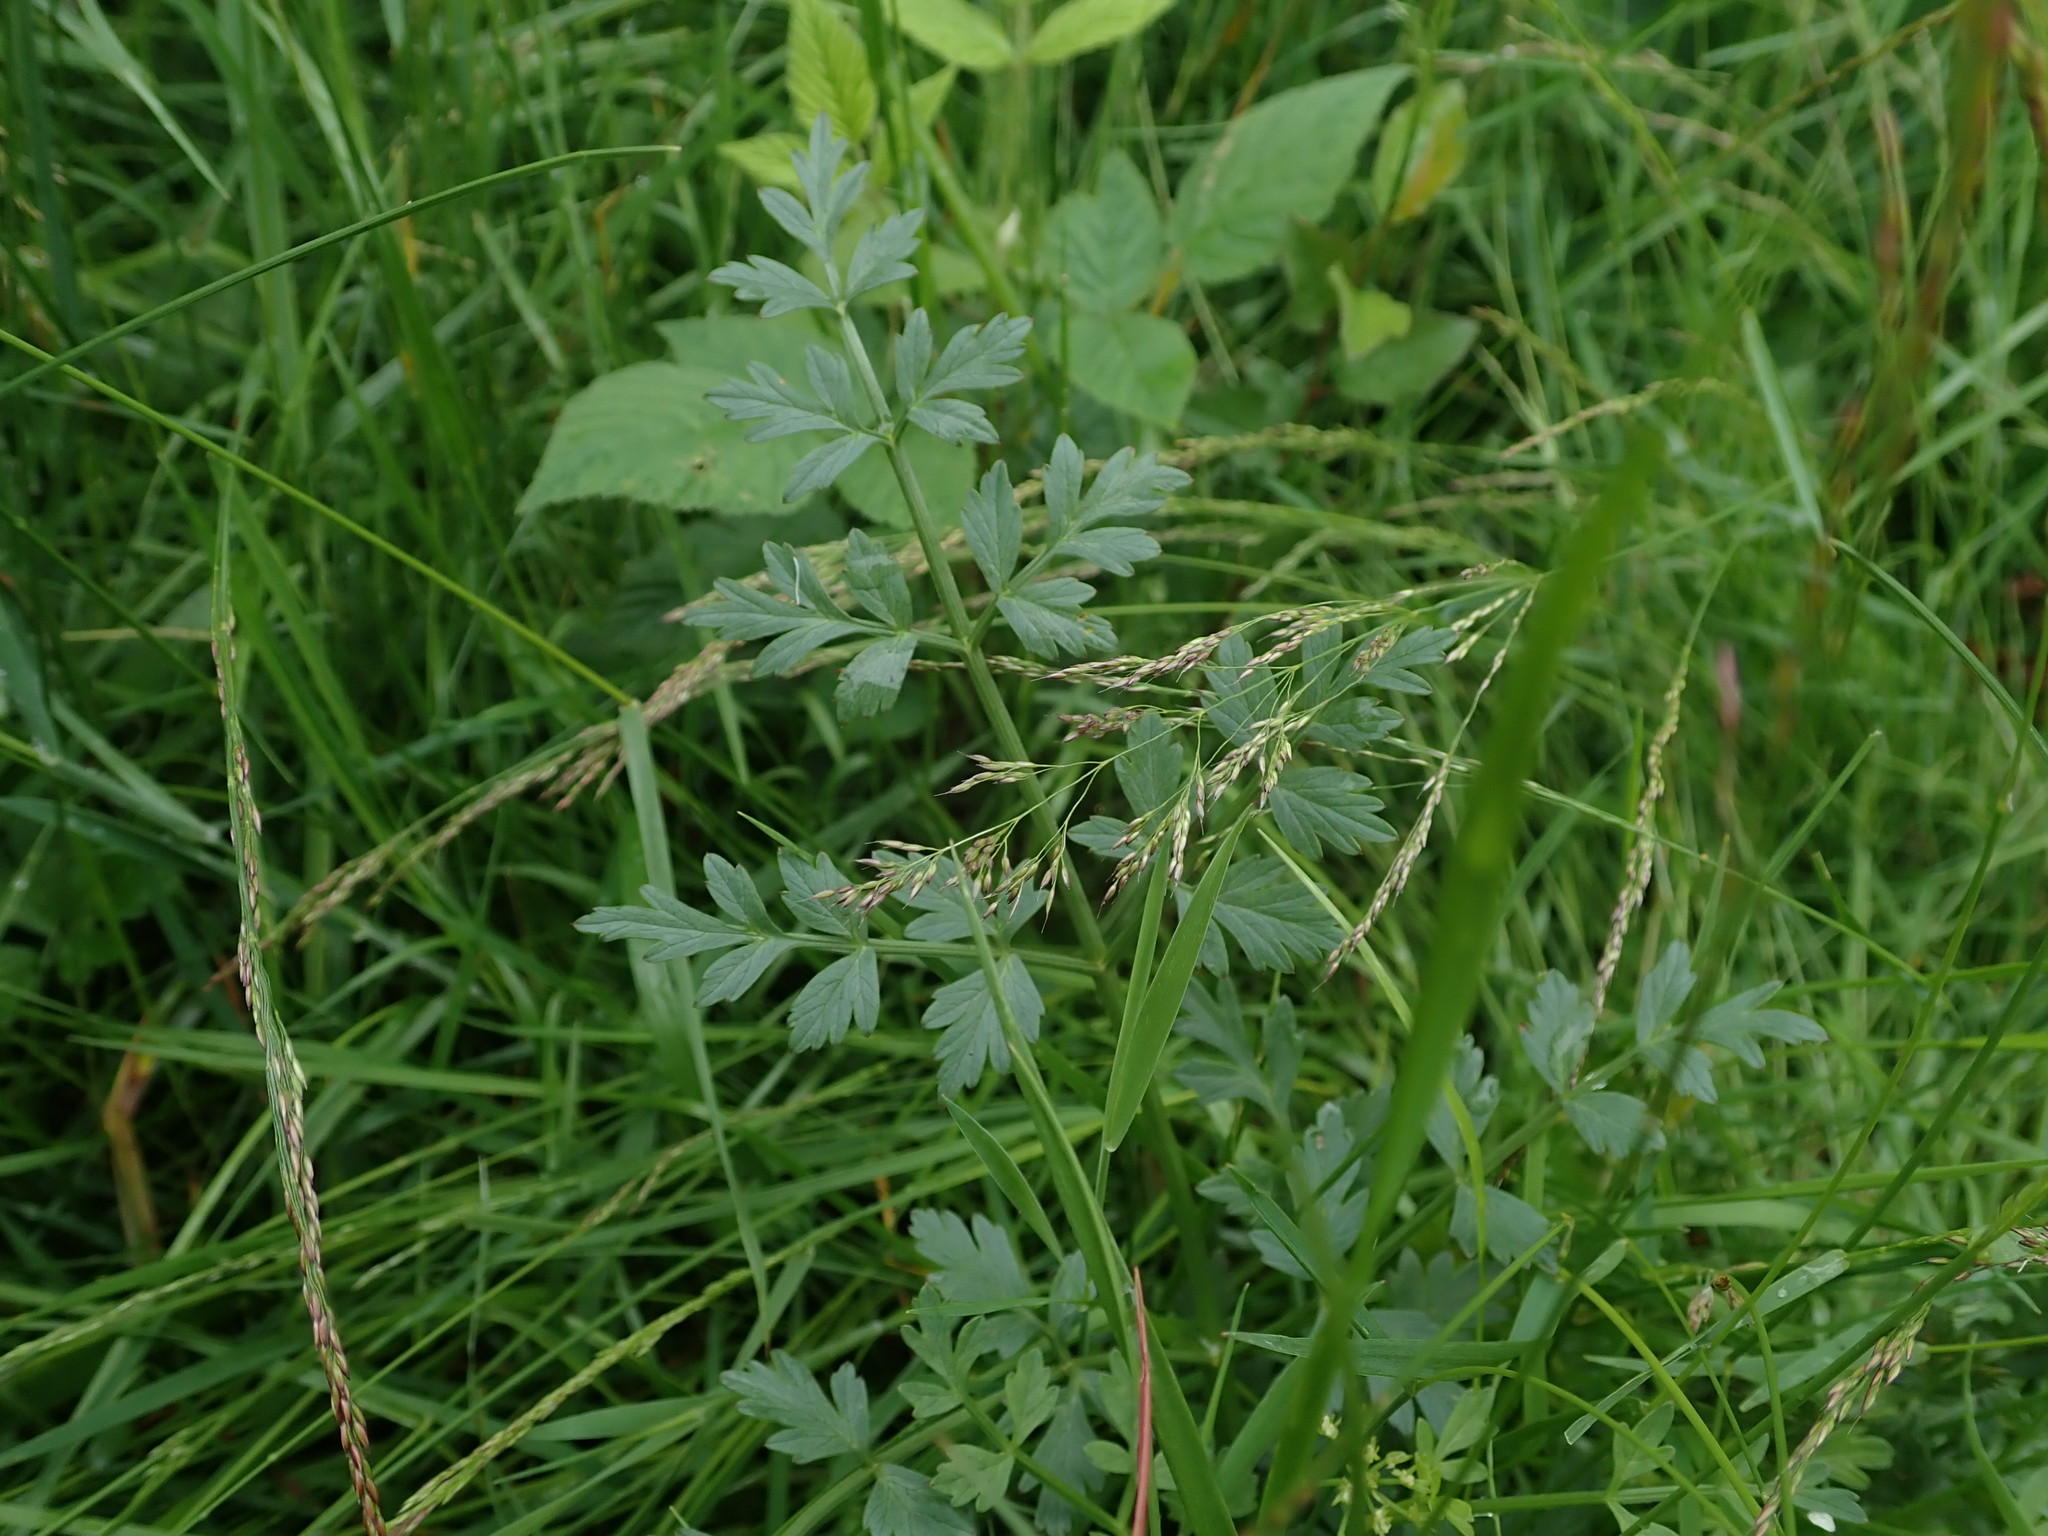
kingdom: Plantae
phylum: Tracheophyta
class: Magnoliopsida
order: Apiales
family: Apiaceae
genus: Oenanthe
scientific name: Oenanthe crocata
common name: Hemlock water-dropwort
